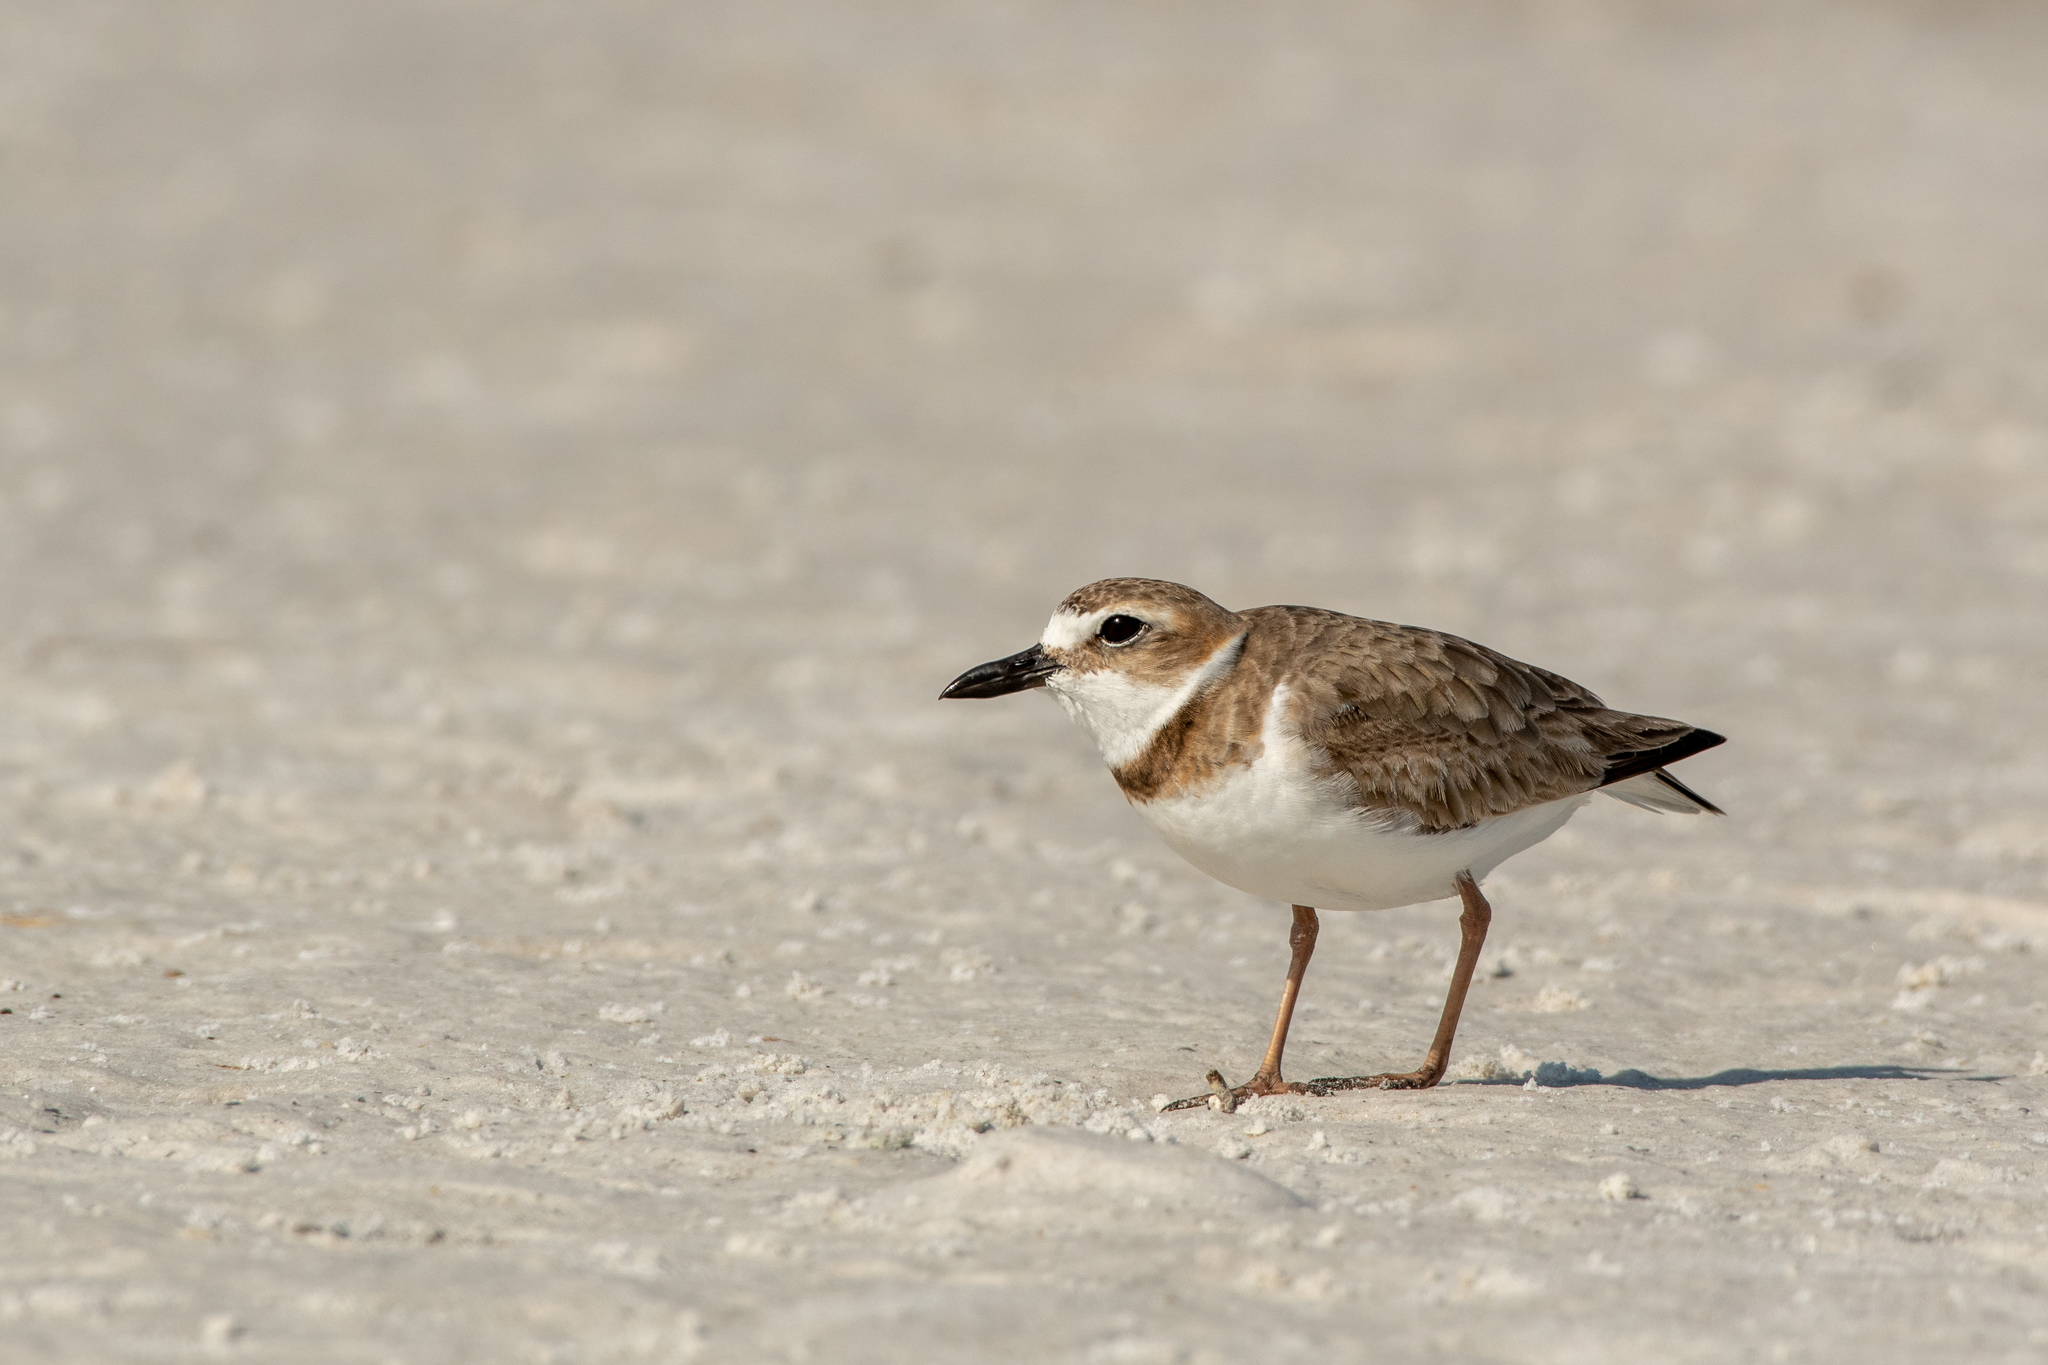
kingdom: Animalia
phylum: Chordata
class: Aves
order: Charadriiformes
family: Charadriidae
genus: Anarhynchus
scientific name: Anarhynchus
